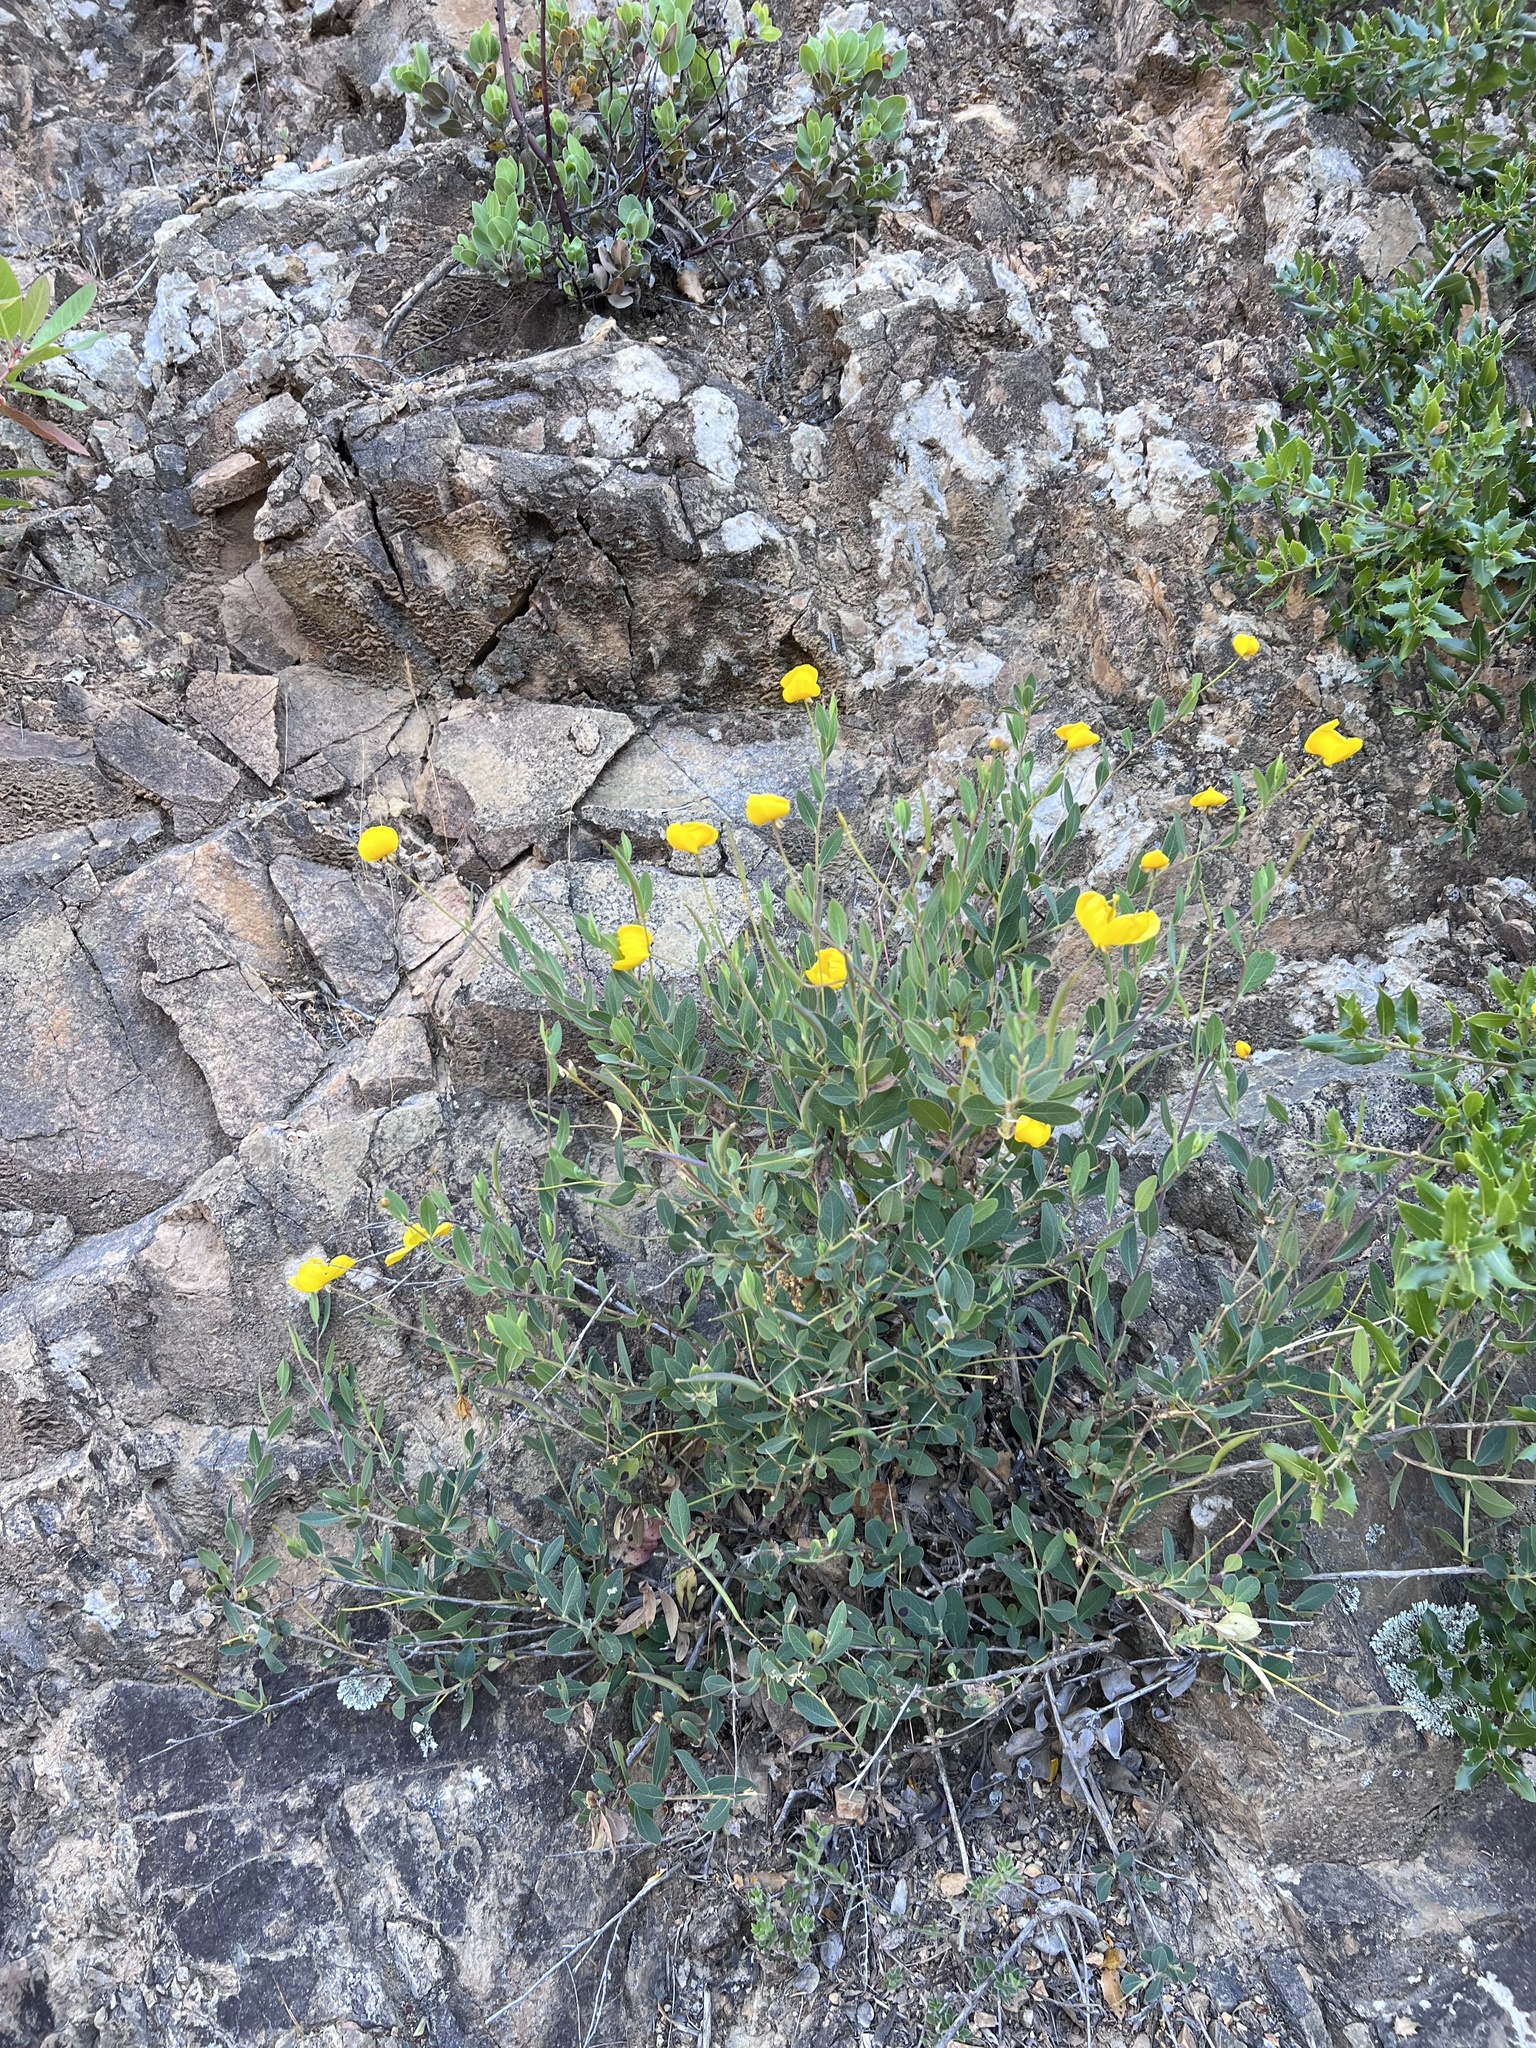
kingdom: Plantae
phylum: Tracheophyta
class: Magnoliopsida
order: Ranunculales
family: Papaveraceae
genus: Dendromecon
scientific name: Dendromecon rigida
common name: Tree poppy
